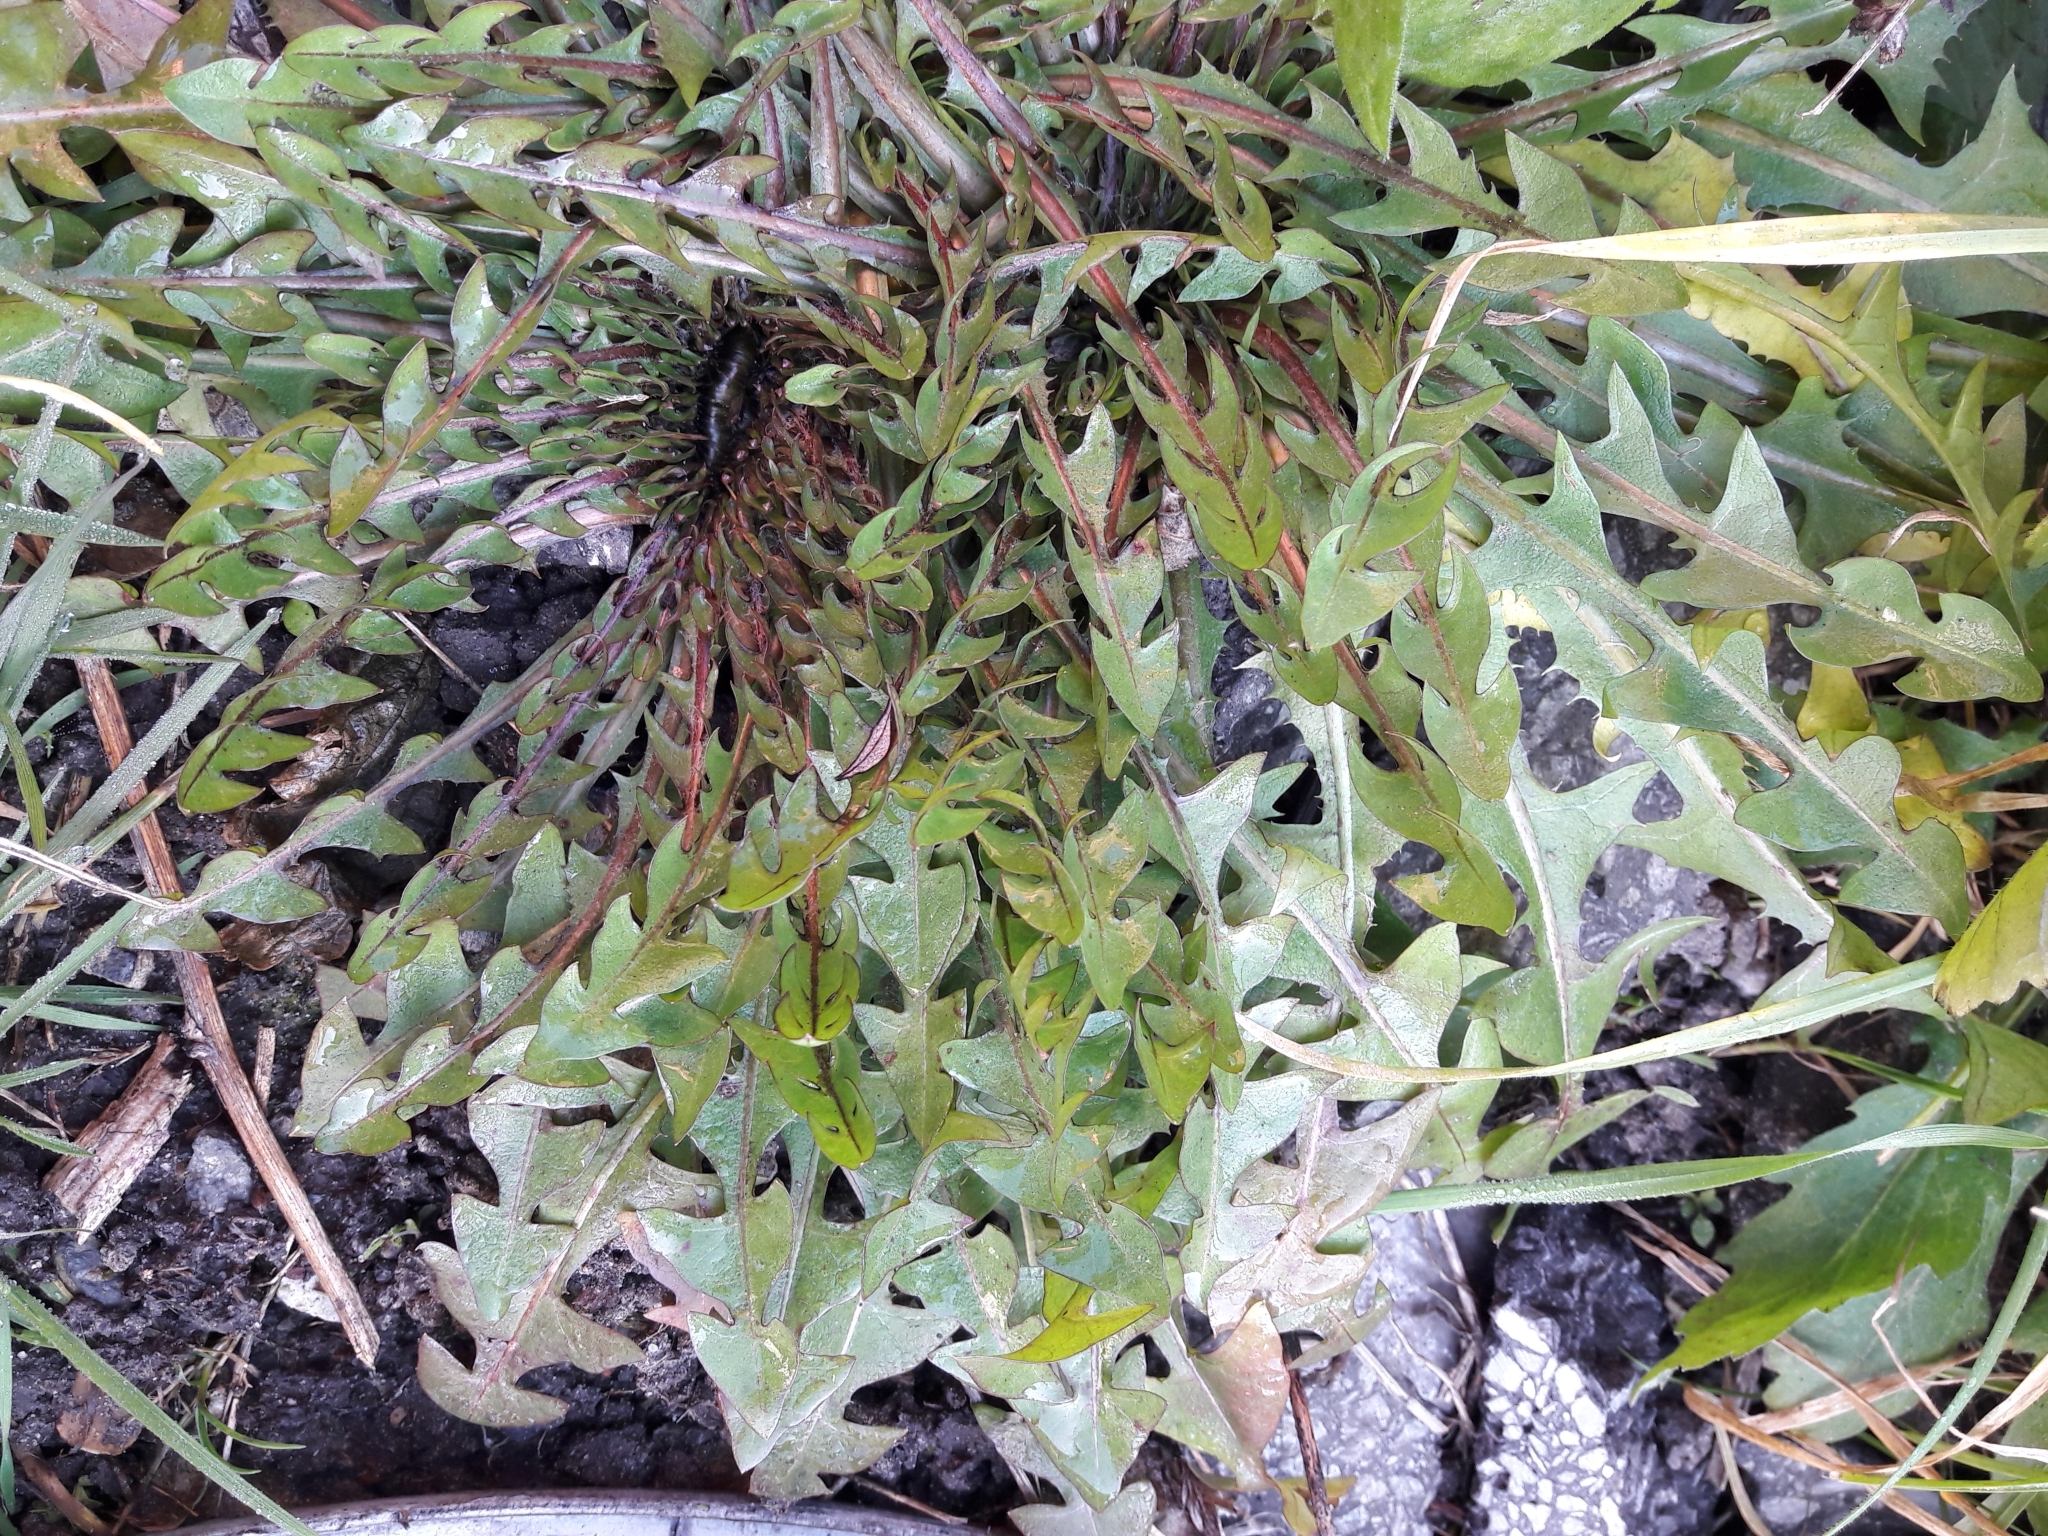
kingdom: Plantae
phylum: Tracheophyta
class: Magnoliopsida
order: Asterales
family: Asteraceae
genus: Taraxacum
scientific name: Taraxacum officinale
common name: Common dandelion
